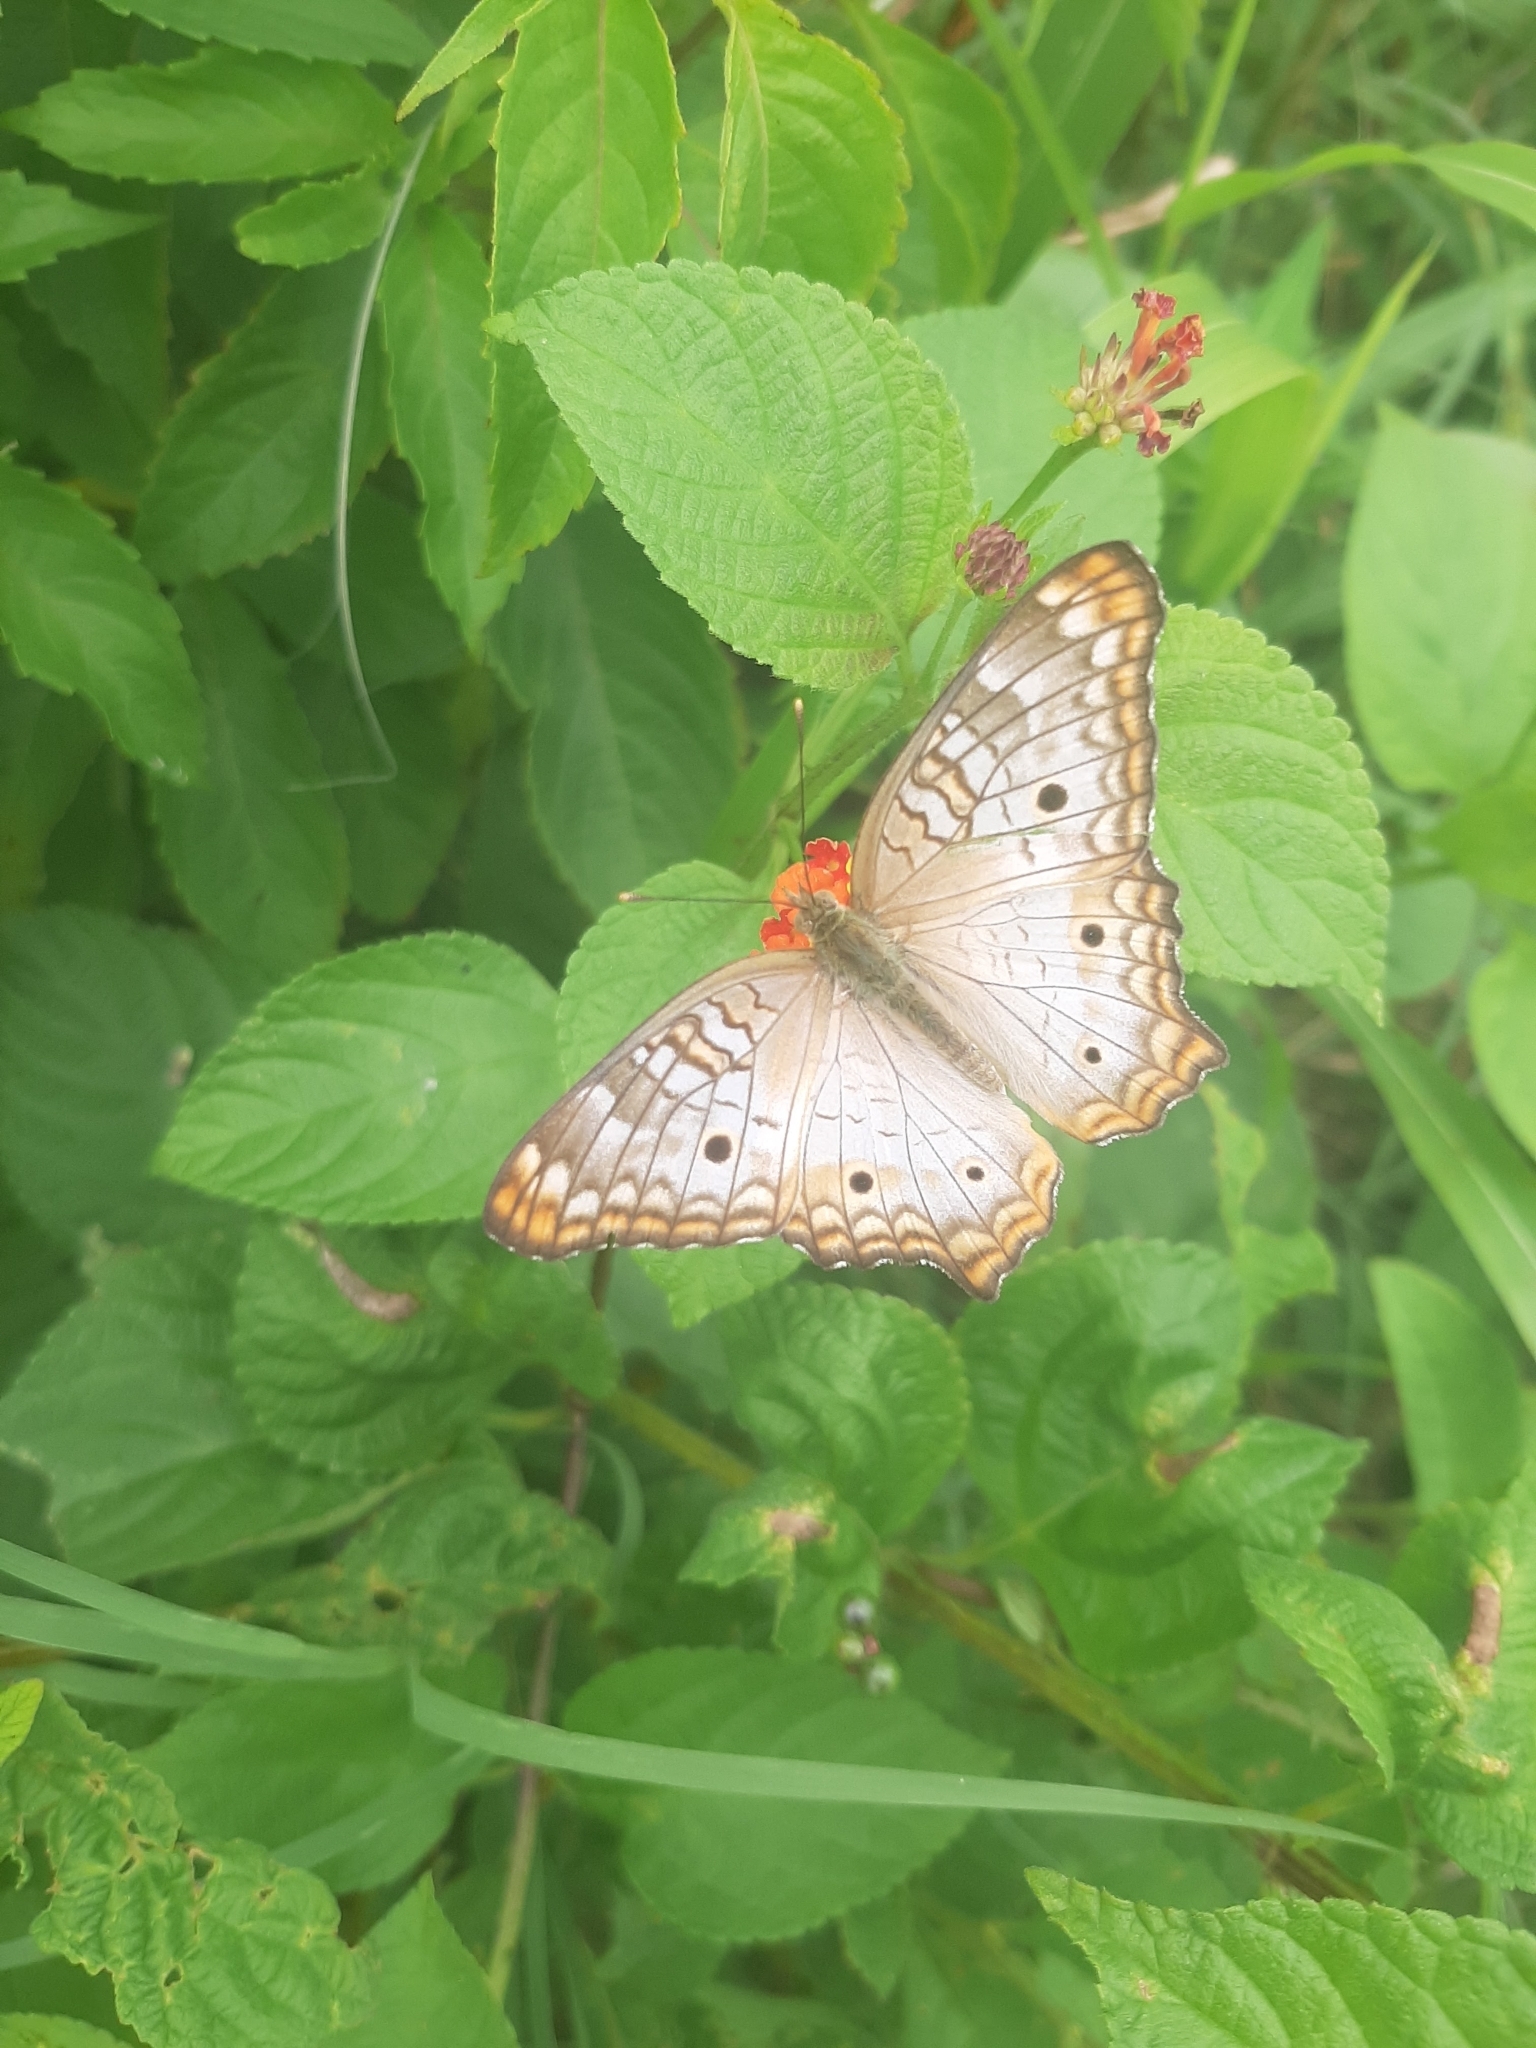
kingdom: Animalia
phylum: Arthropoda
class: Insecta
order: Lepidoptera
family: Nymphalidae
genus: Anartia
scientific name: Anartia jatrophae
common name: White peacock
